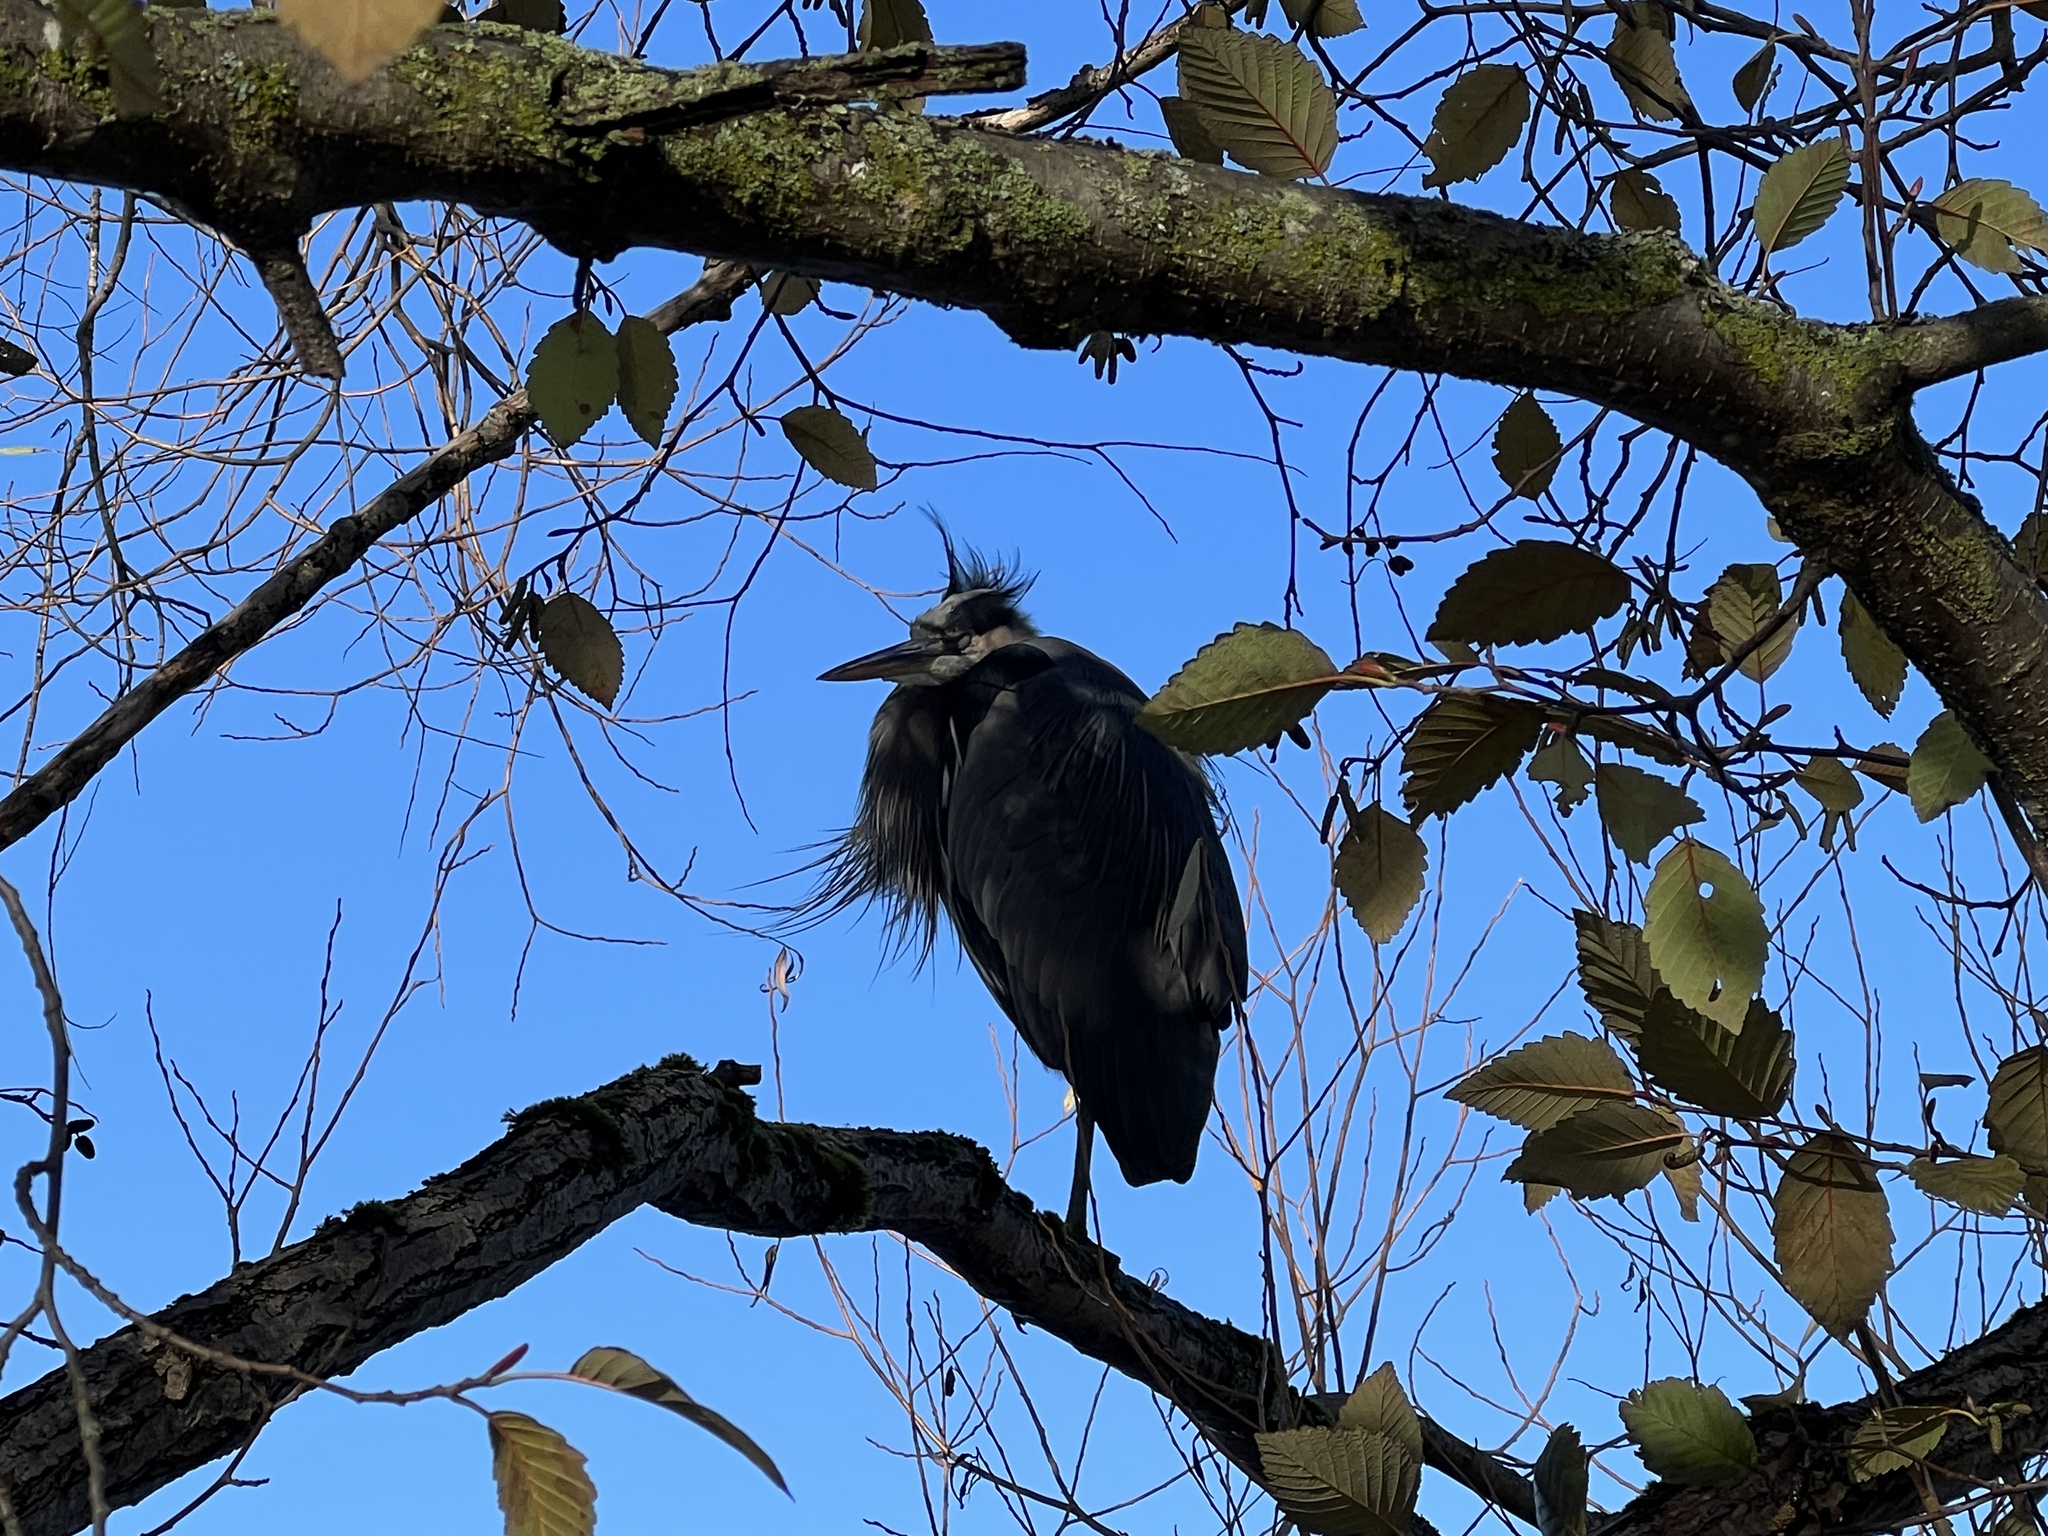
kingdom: Animalia
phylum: Chordata
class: Aves
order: Pelecaniformes
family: Ardeidae
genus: Ardea
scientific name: Ardea herodias
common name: Great blue heron
